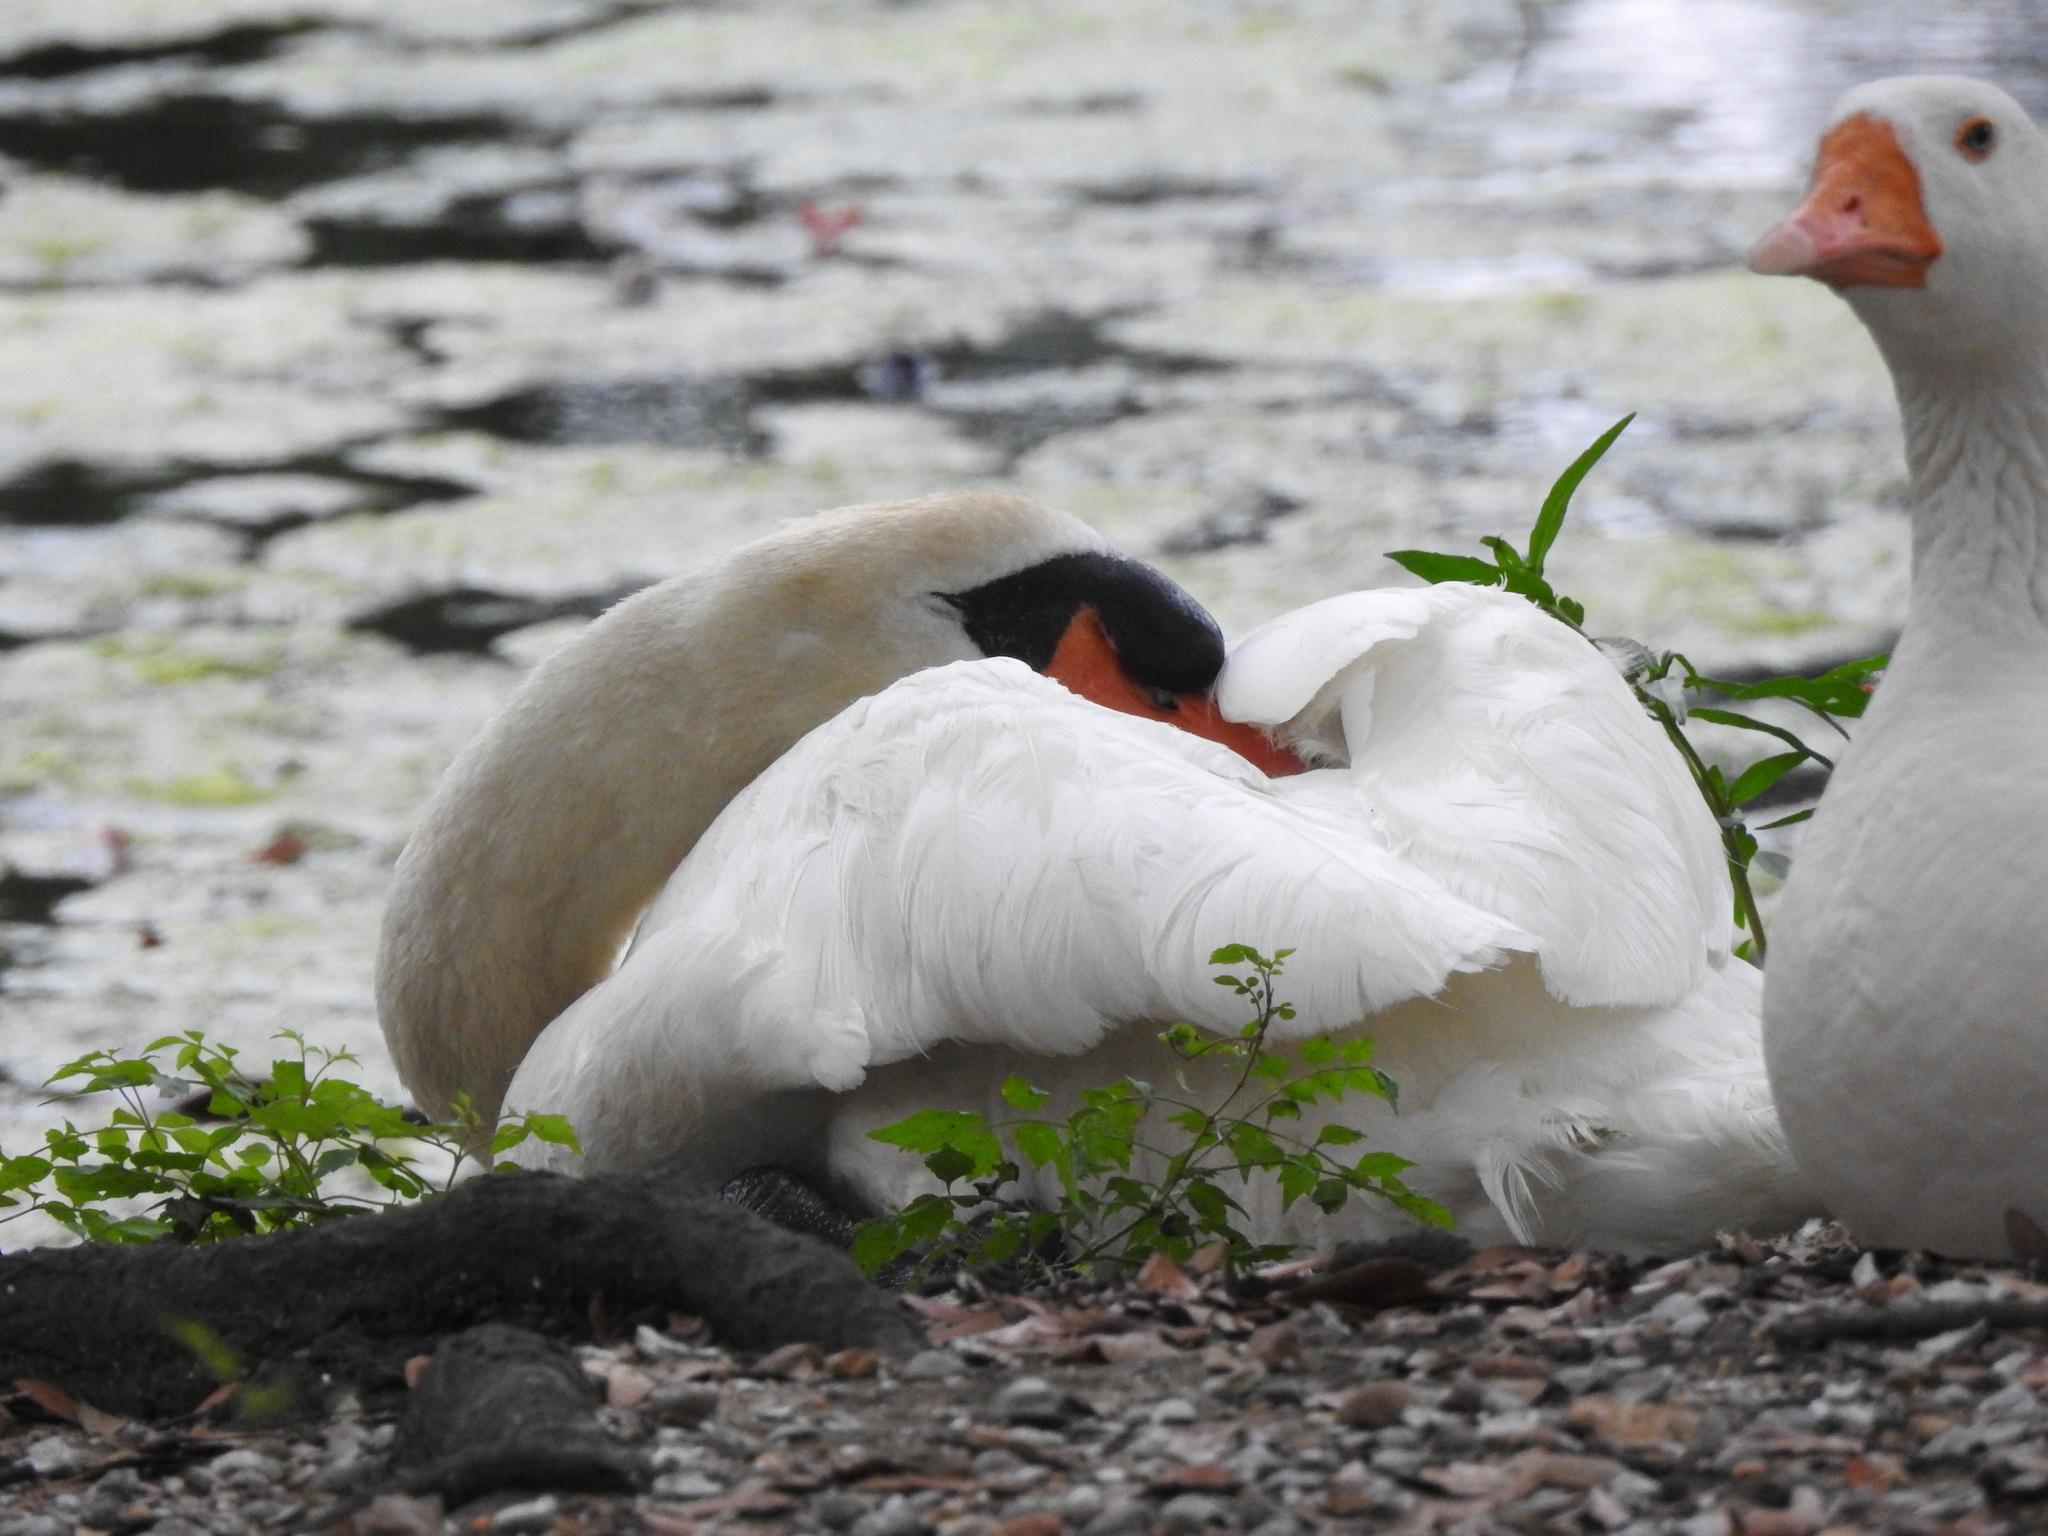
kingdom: Animalia
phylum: Chordata
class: Aves
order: Anseriformes
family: Anatidae
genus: Cygnus
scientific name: Cygnus olor
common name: Mute swan
